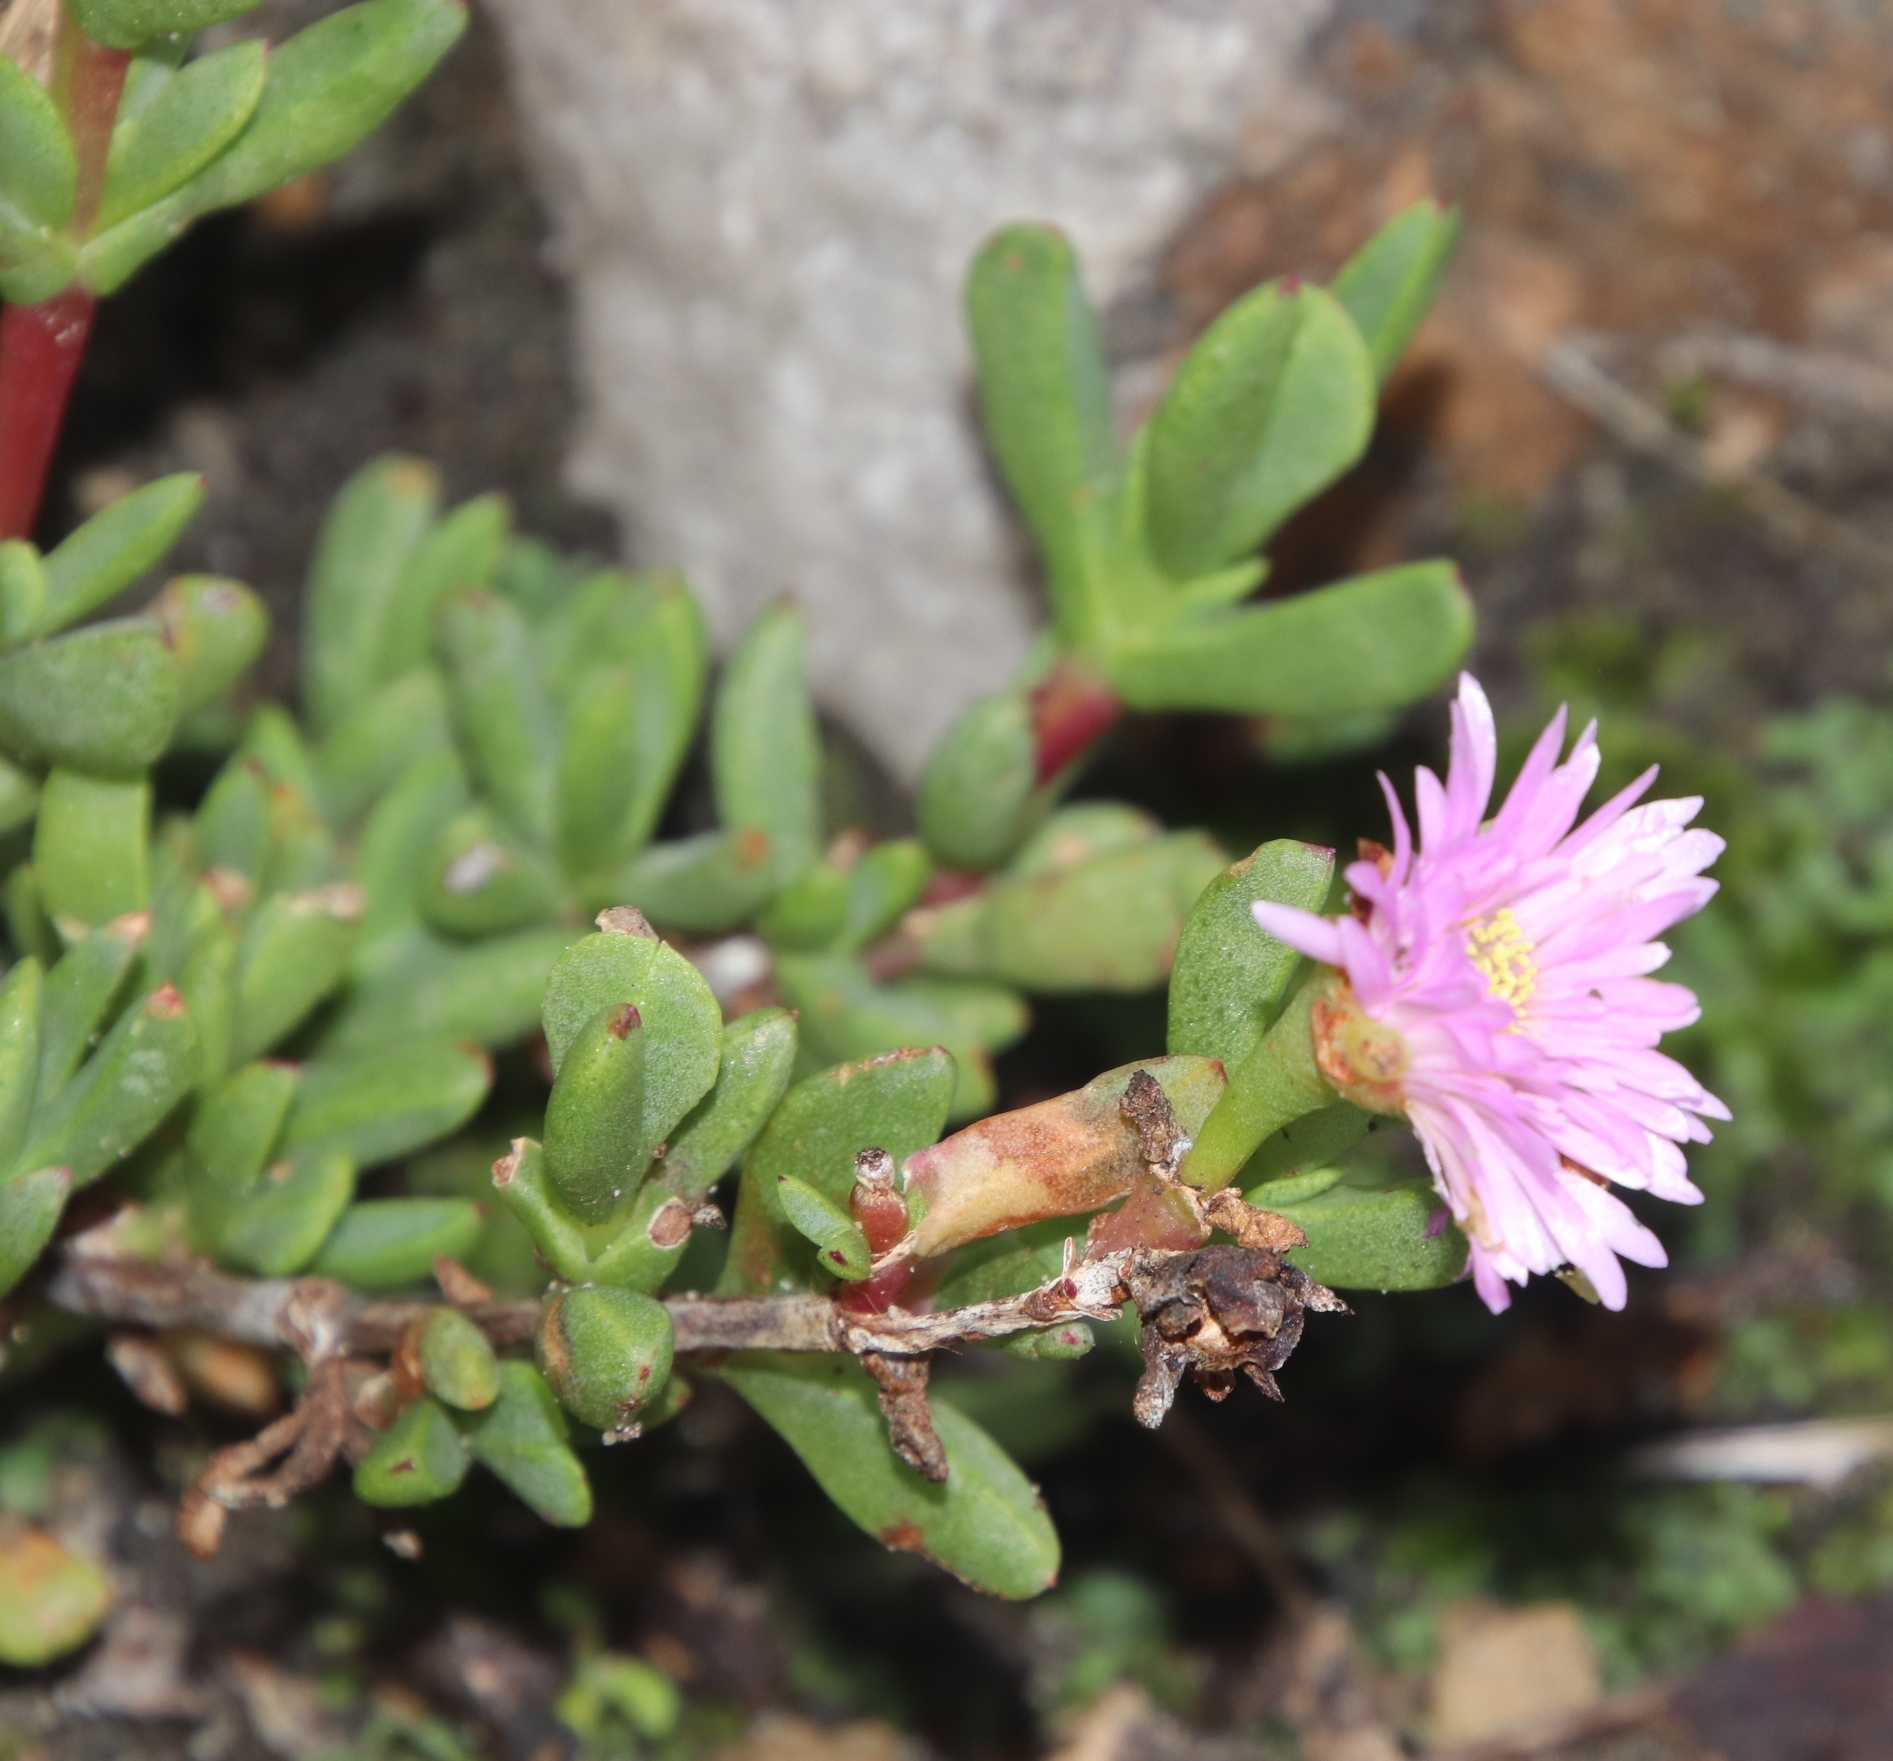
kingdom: Plantae
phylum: Tracheophyta
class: Magnoliopsida
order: Caryophyllales
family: Aizoaceae
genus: Oscularia
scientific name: Oscularia falciformis
